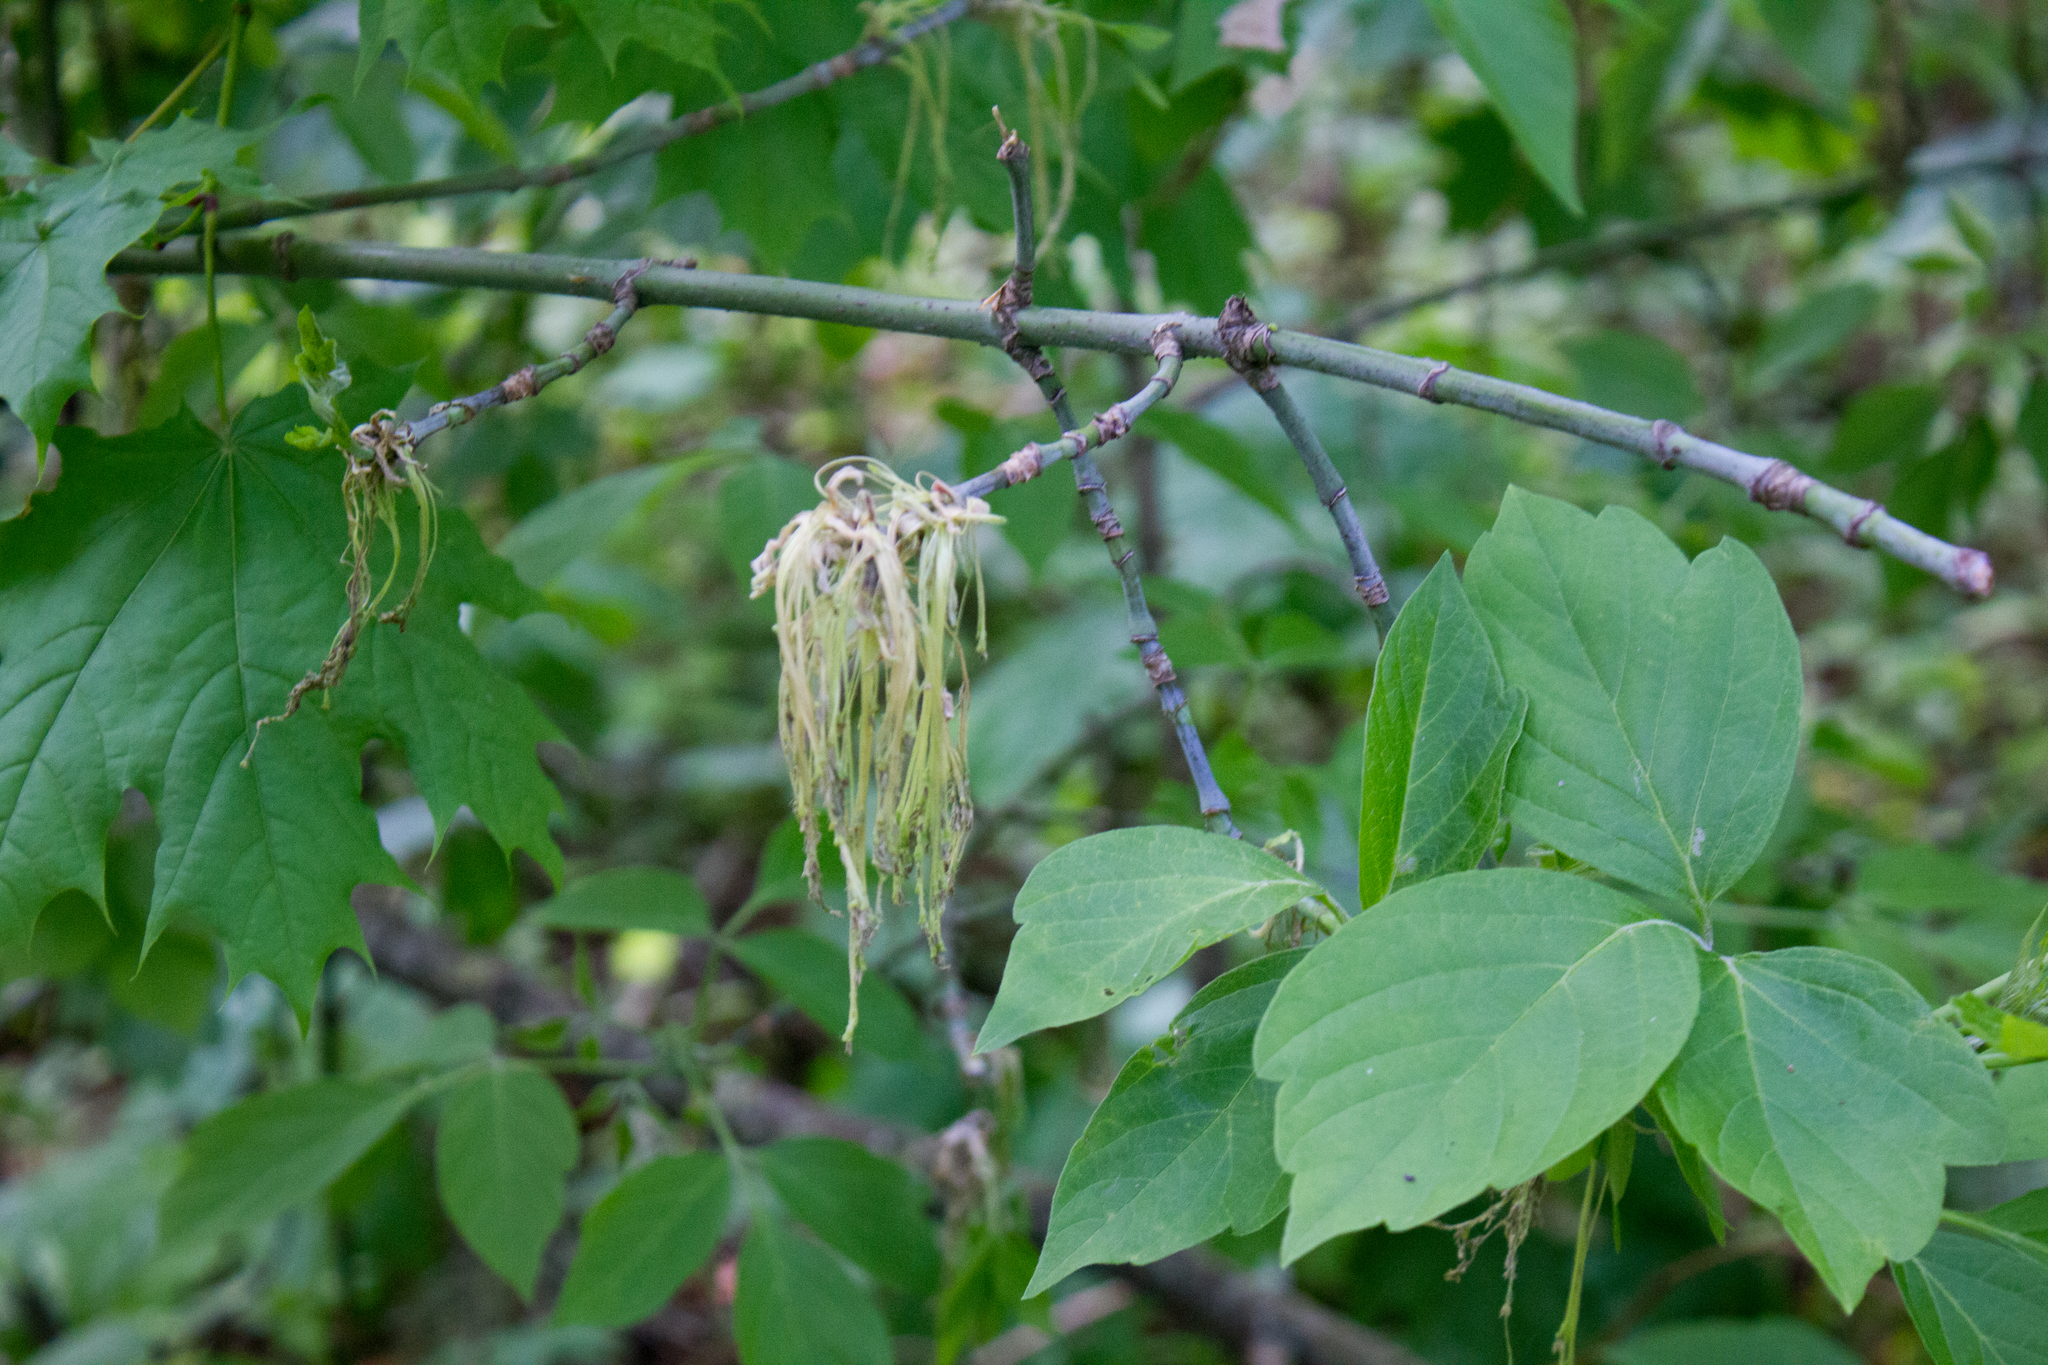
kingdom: Plantae
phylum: Tracheophyta
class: Magnoliopsida
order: Sapindales
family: Sapindaceae
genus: Acer
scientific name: Acer negundo
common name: Ashleaf maple
